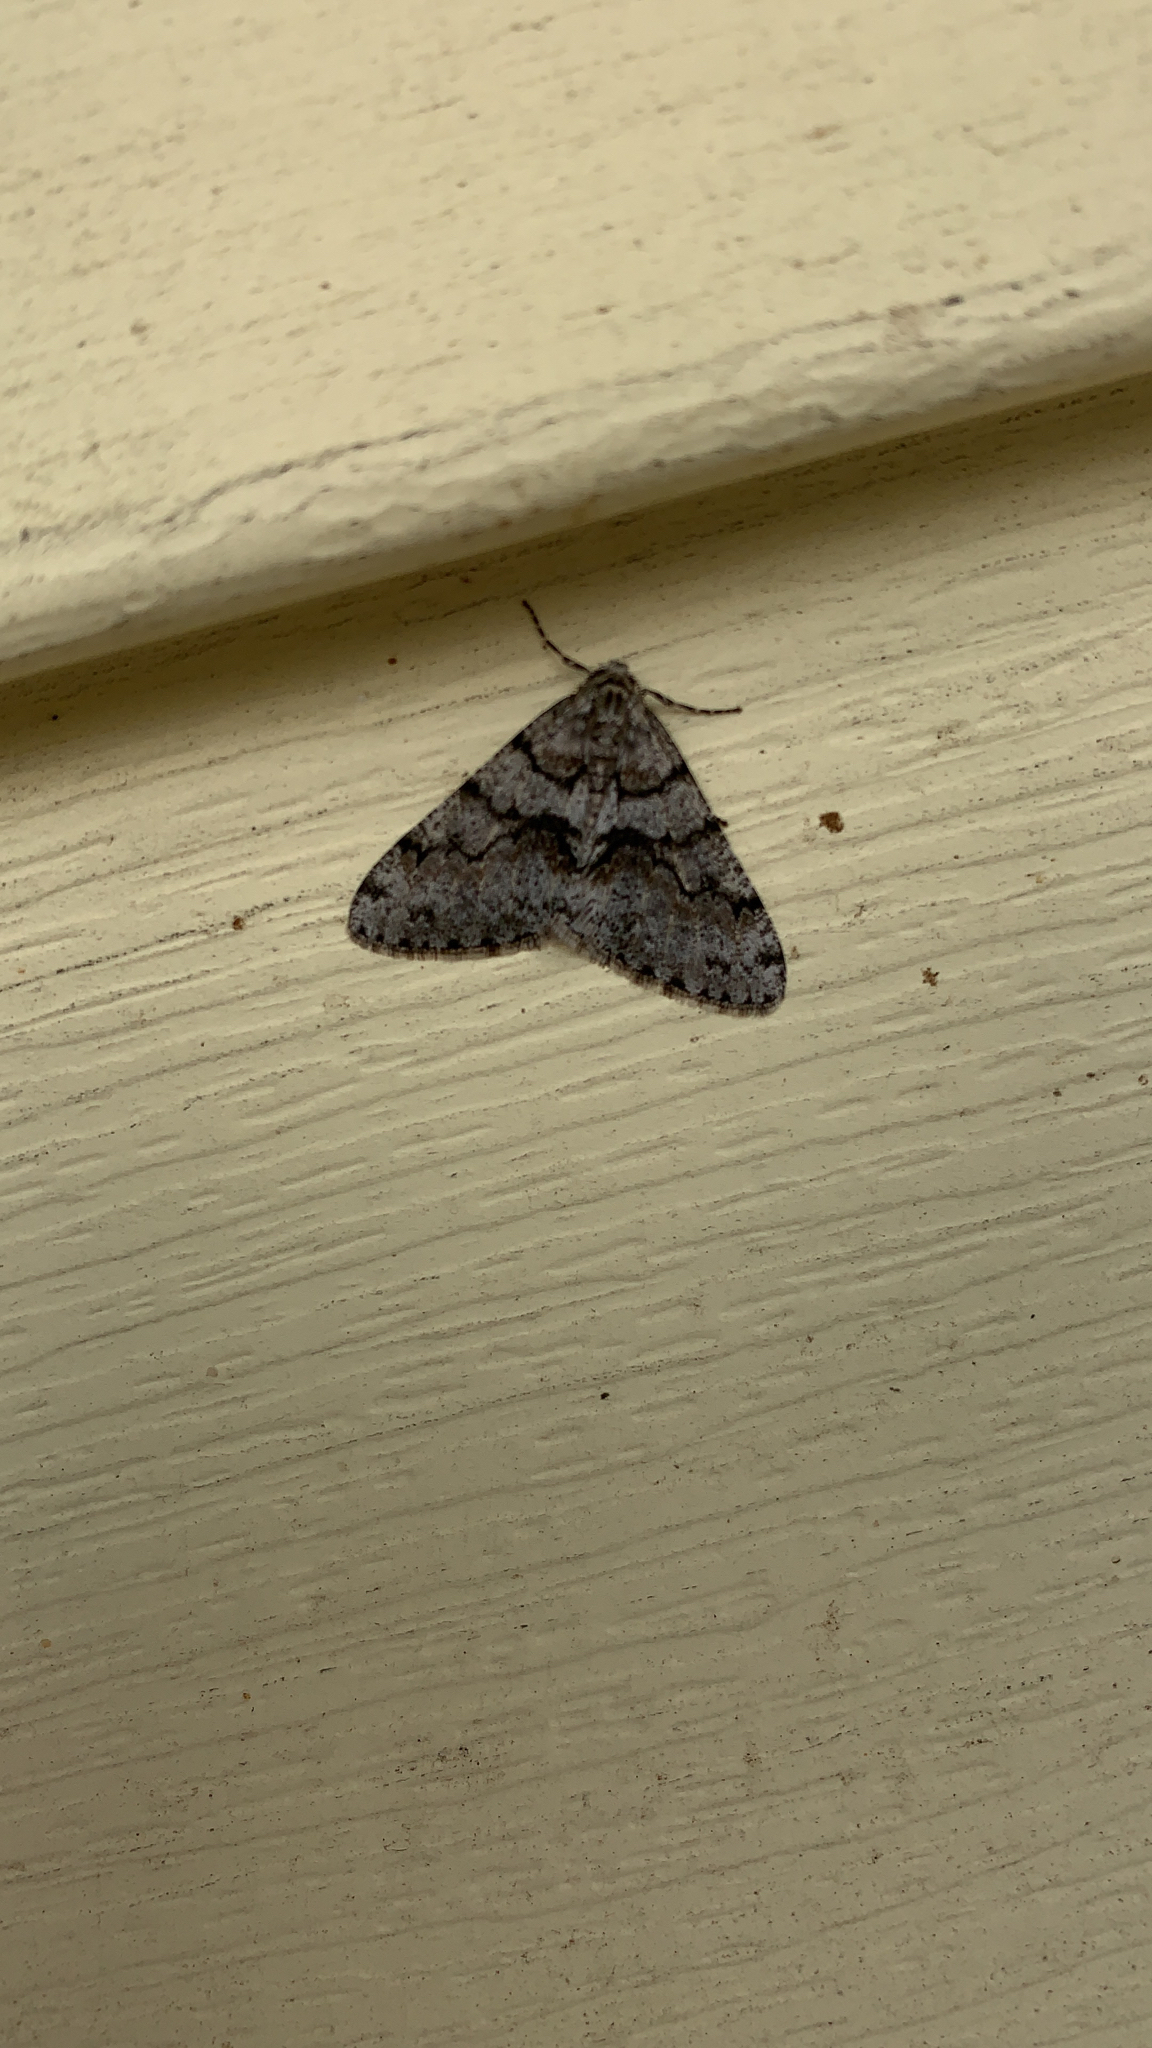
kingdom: Animalia
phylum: Arthropoda
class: Insecta
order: Lepidoptera
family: Geometridae
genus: Phigalia
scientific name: Phigalia denticulata
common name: Toothed phigalia
